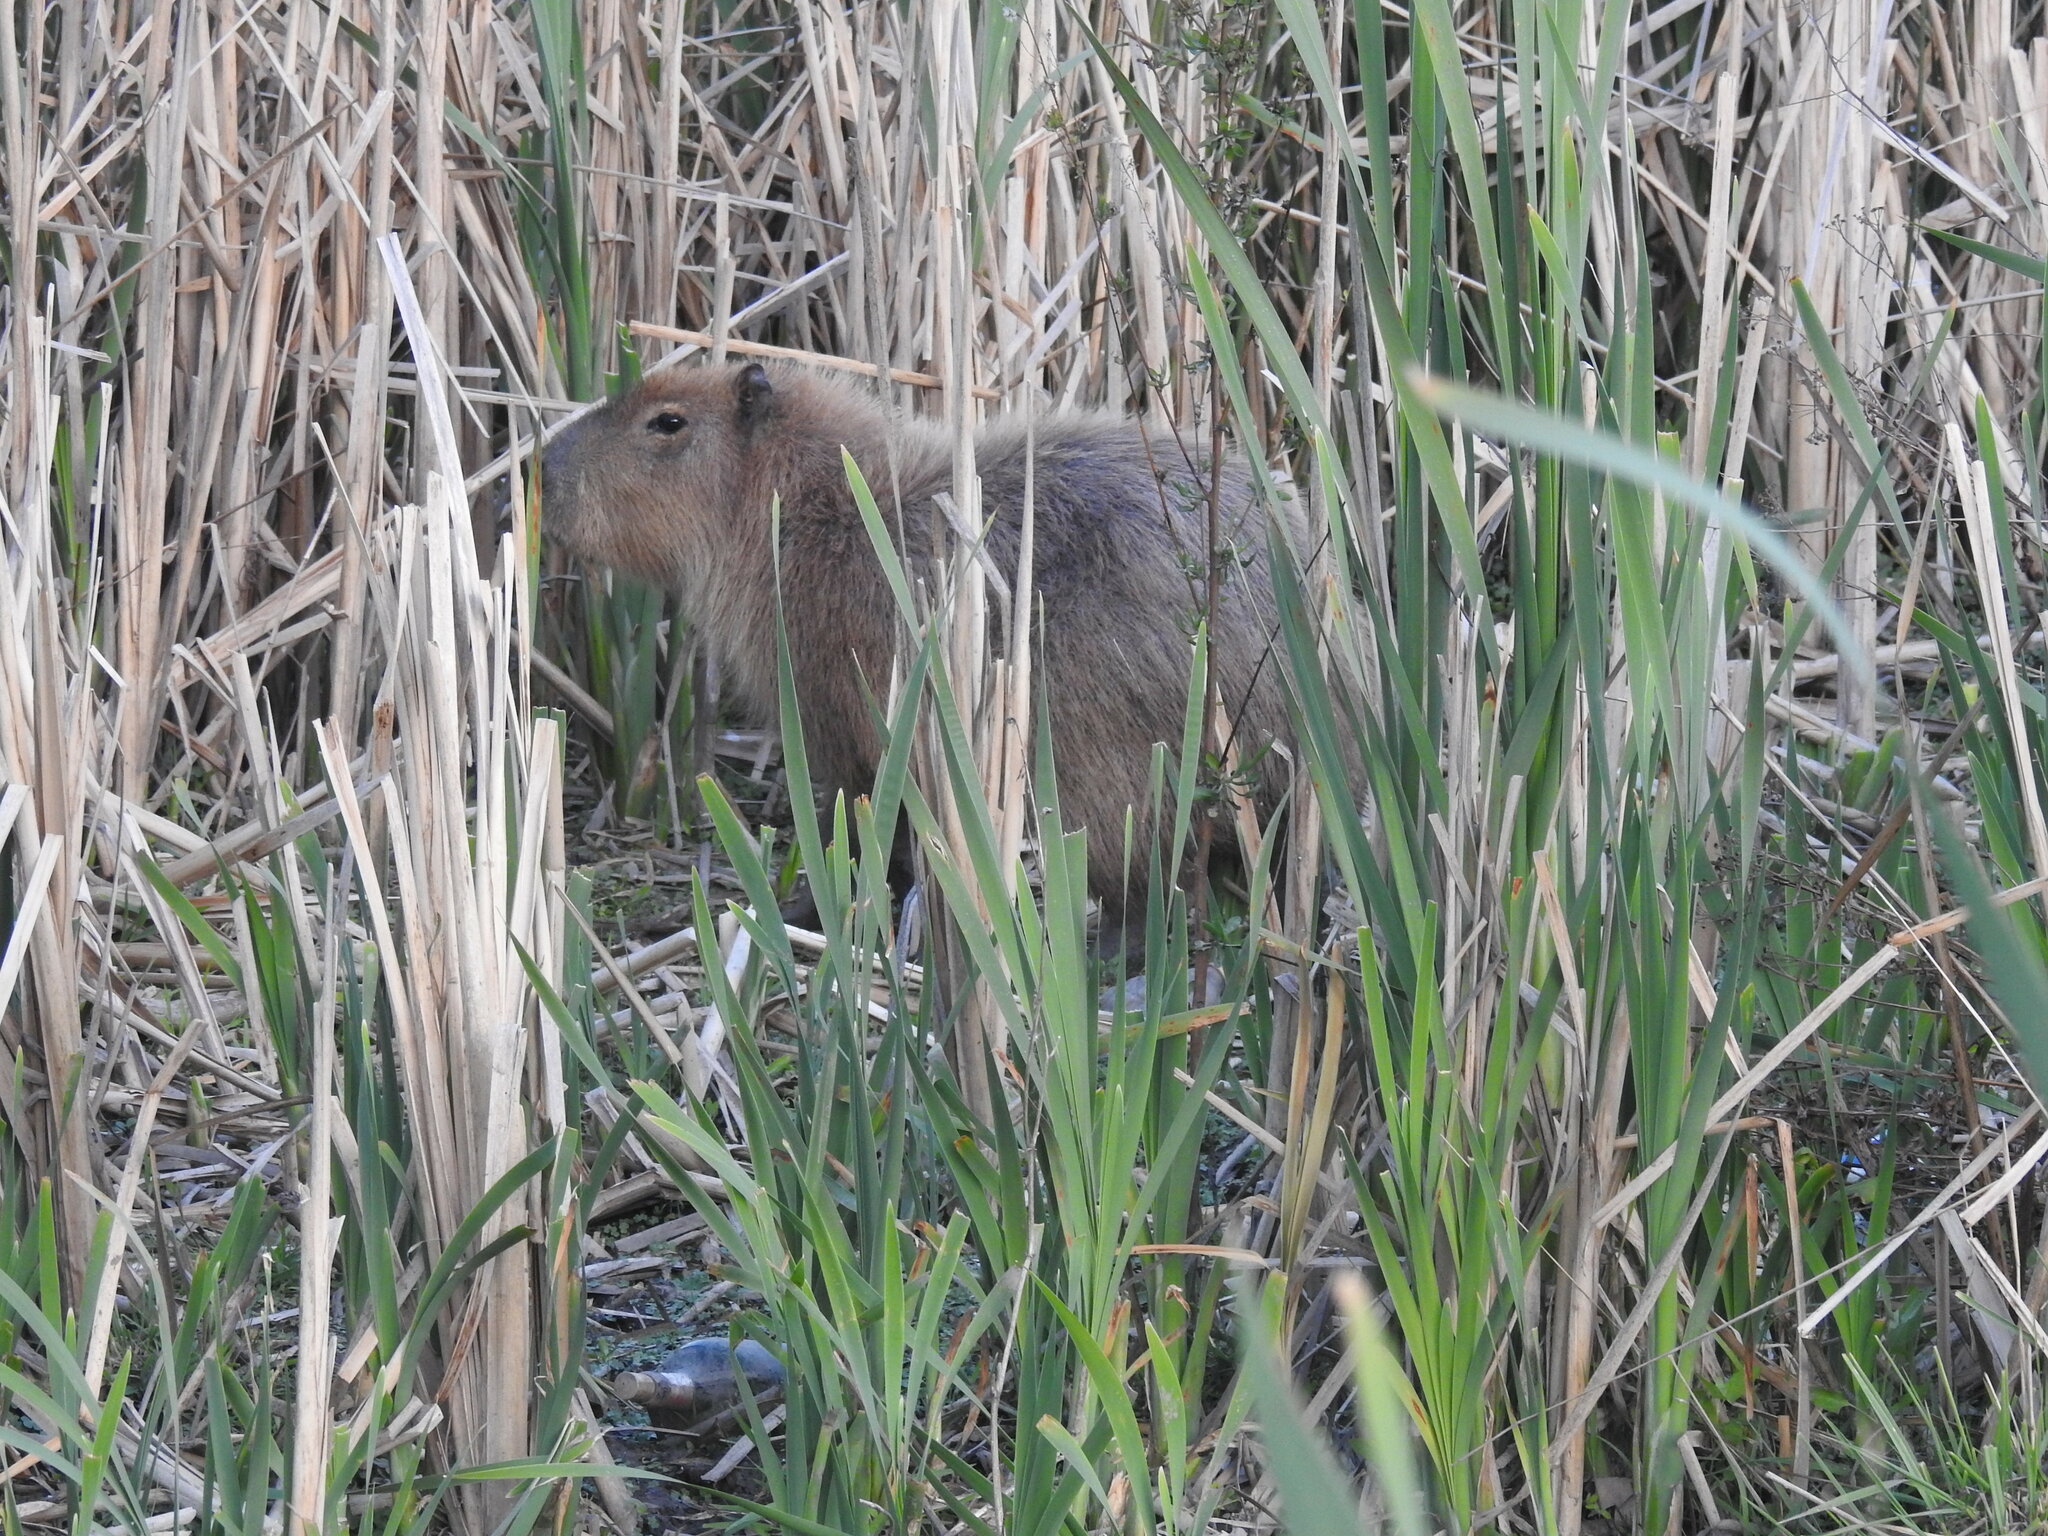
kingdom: Animalia
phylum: Chordata
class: Mammalia
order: Rodentia
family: Caviidae
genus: Hydrochoerus
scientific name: Hydrochoerus hydrochaeris
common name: Capybara
